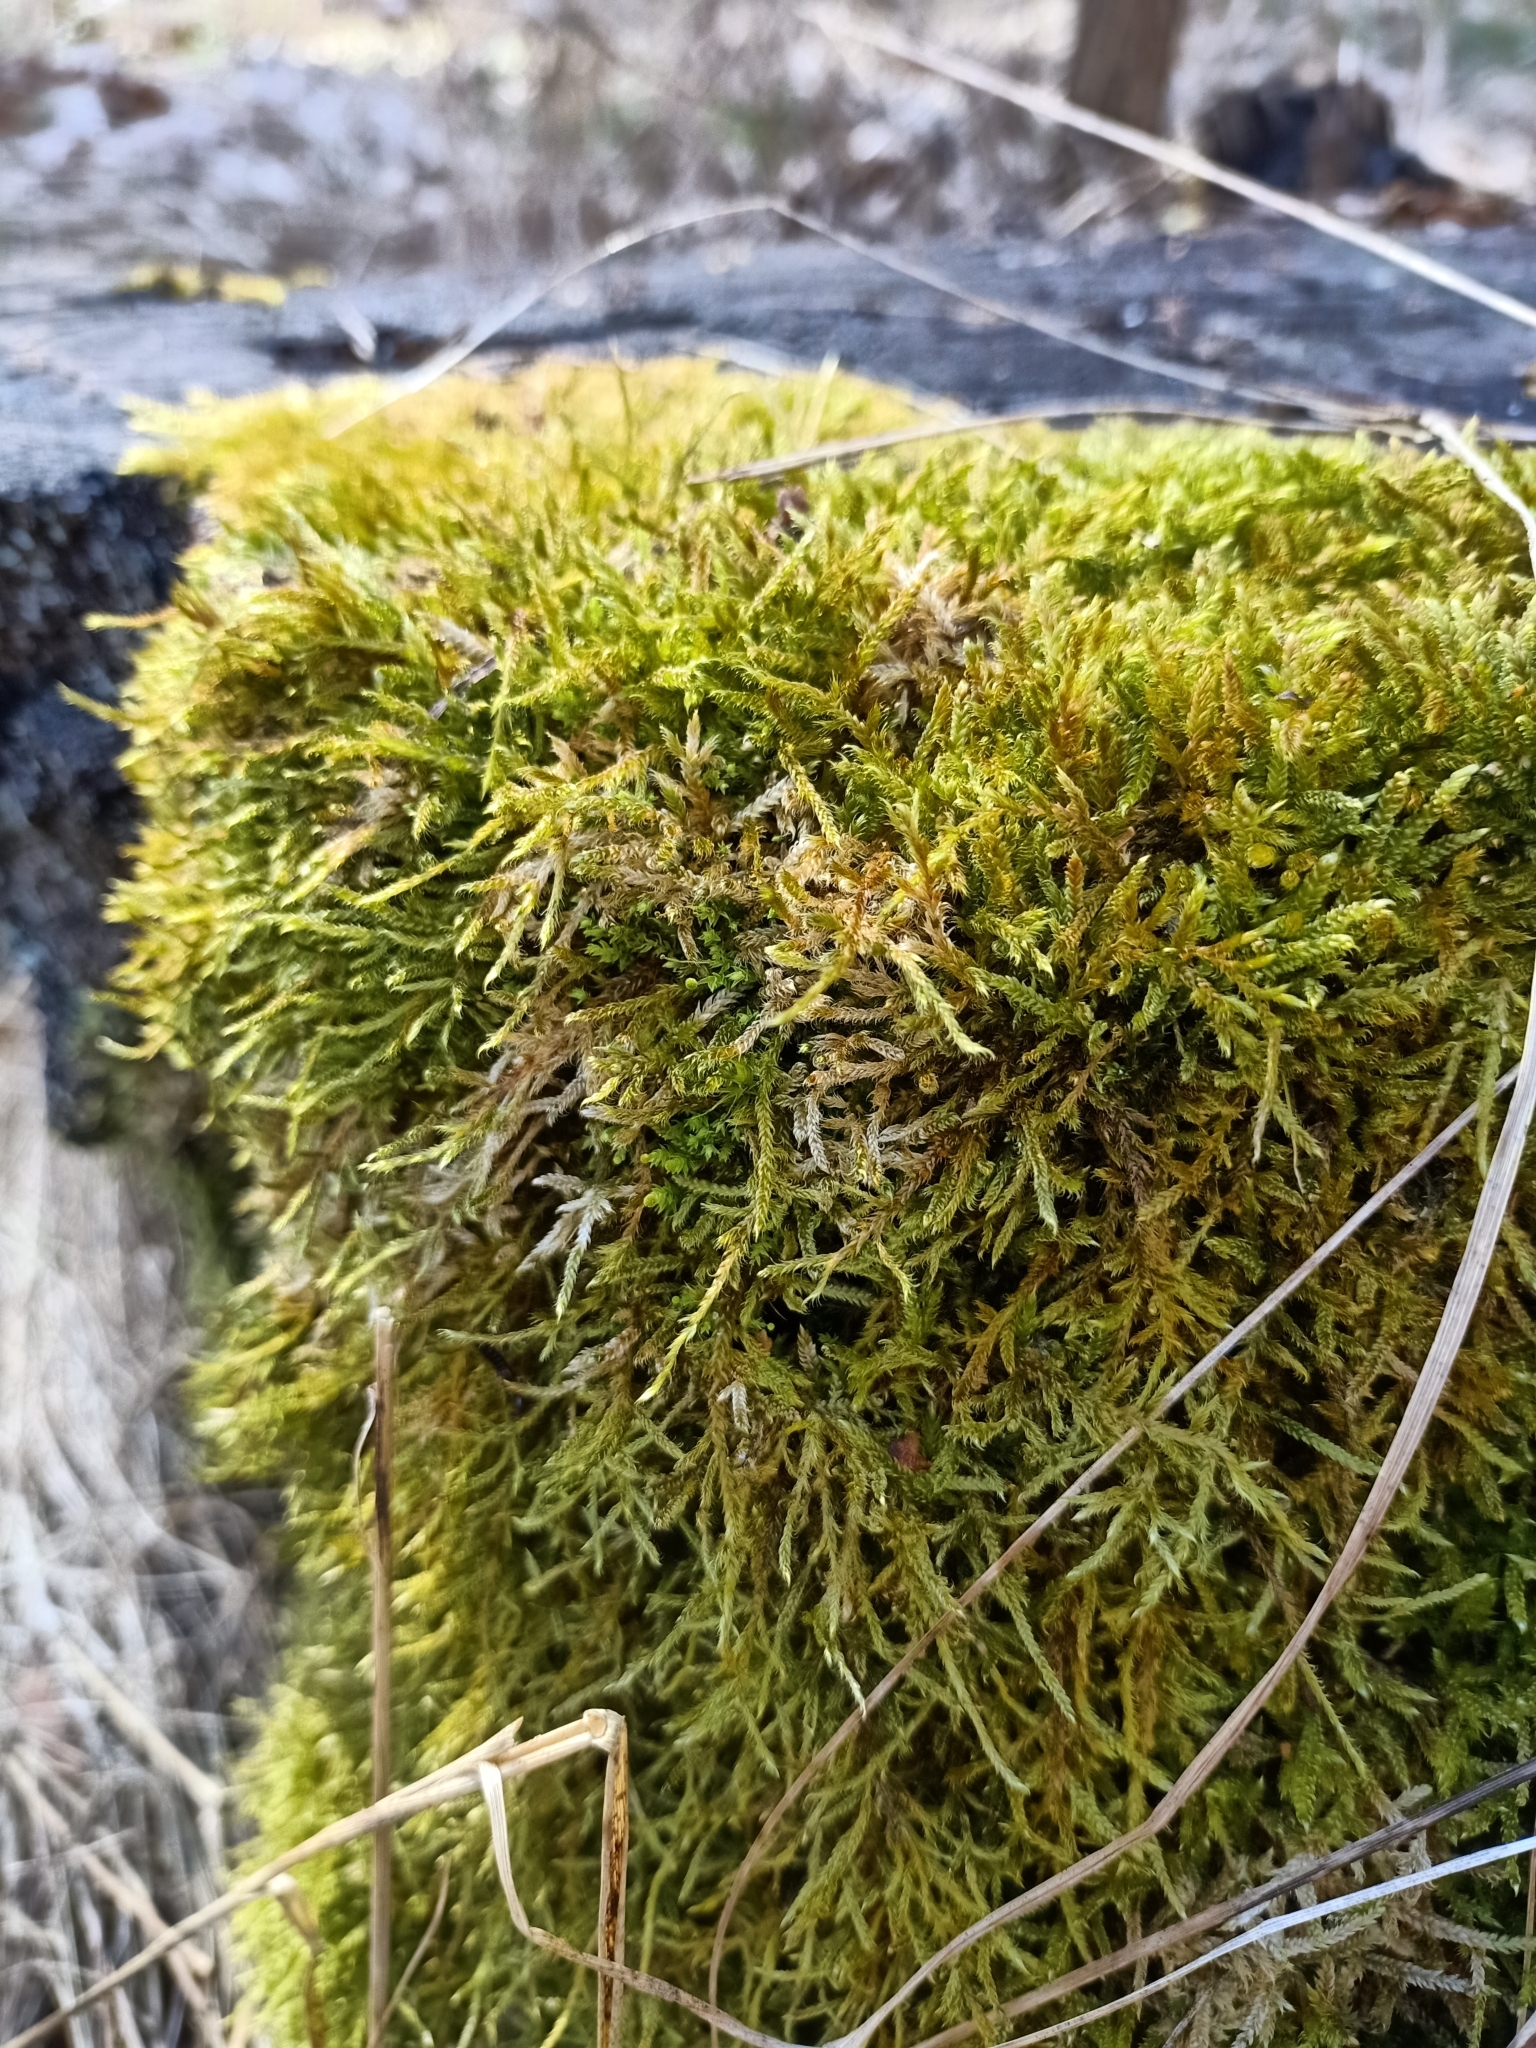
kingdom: Plantae
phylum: Bryophyta
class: Bryopsida
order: Hypnales
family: Hypnaceae
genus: Hypnum
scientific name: Hypnum cupressiforme
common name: Cypress-leaved plait-moss
